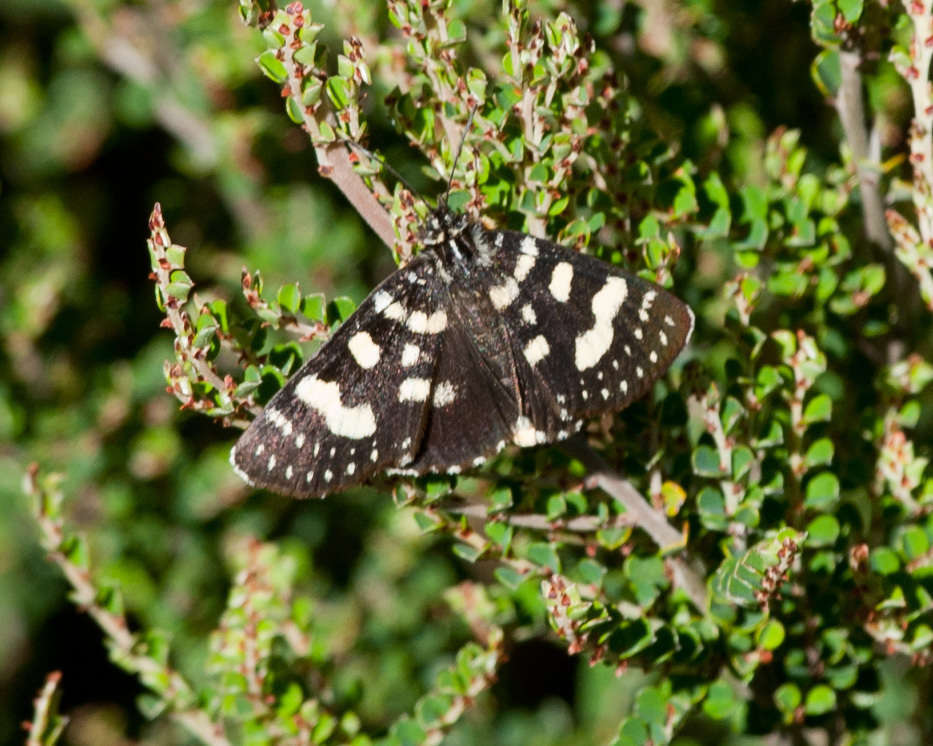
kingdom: Animalia
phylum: Arthropoda
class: Insecta
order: Lepidoptera
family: Noctuidae
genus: Phalaenoides
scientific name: Phalaenoides tristifica
